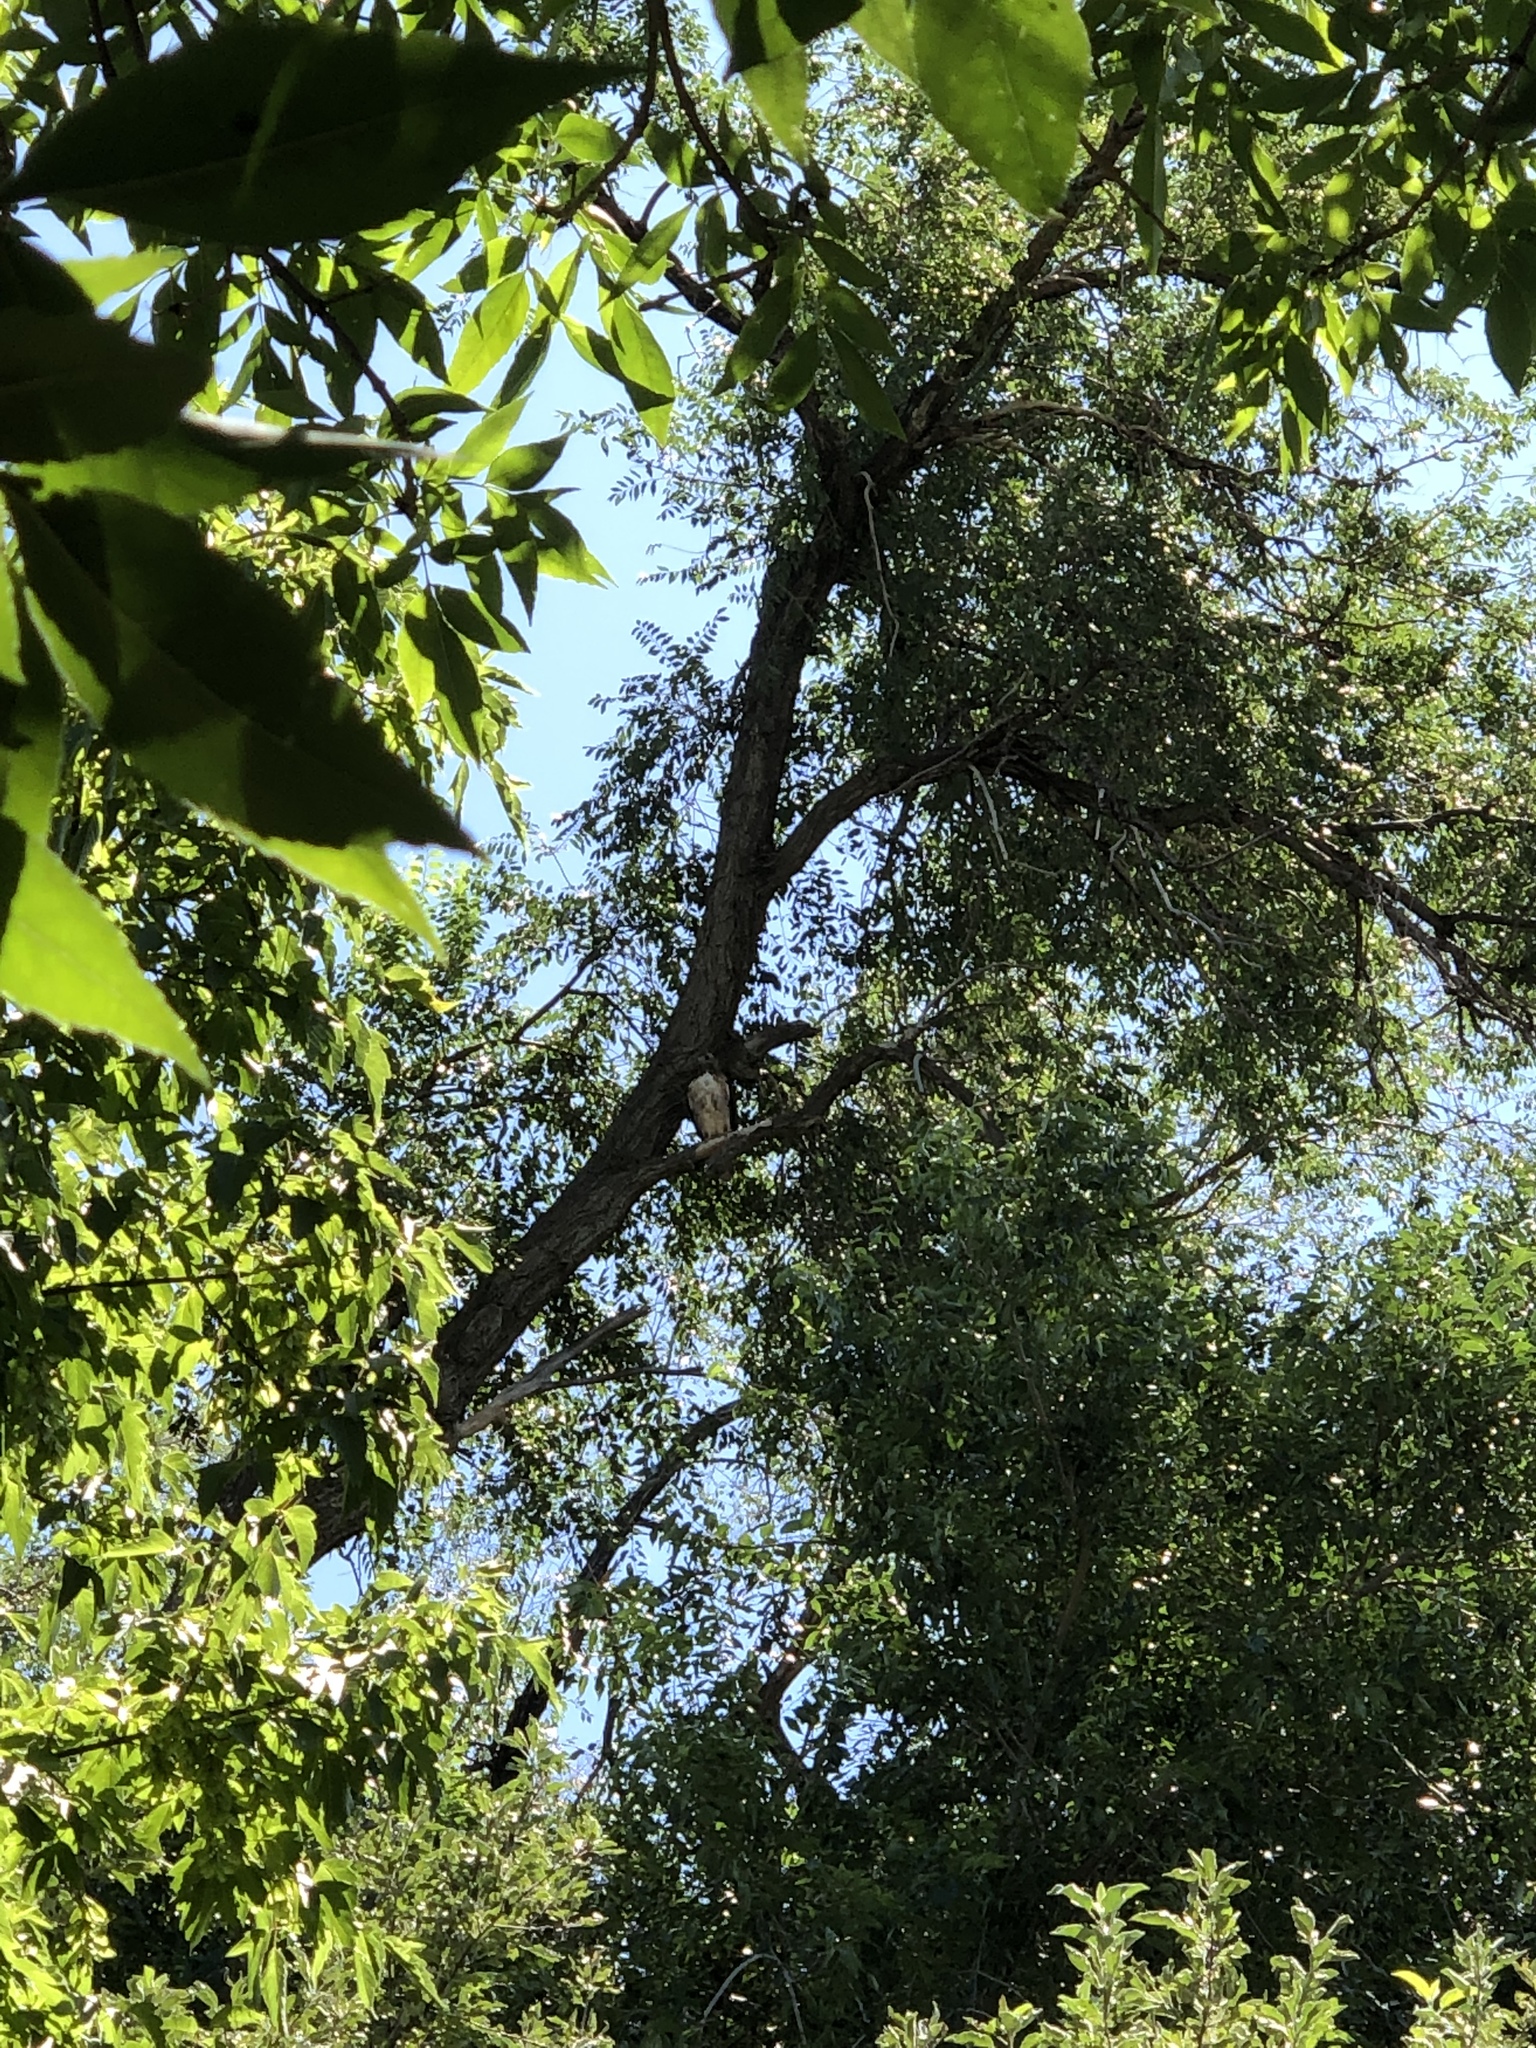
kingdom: Animalia
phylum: Chordata
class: Aves
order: Accipitriformes
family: Accipitridae
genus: Buteo
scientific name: Buteo jamaicensis
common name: Red-tailed hawk
